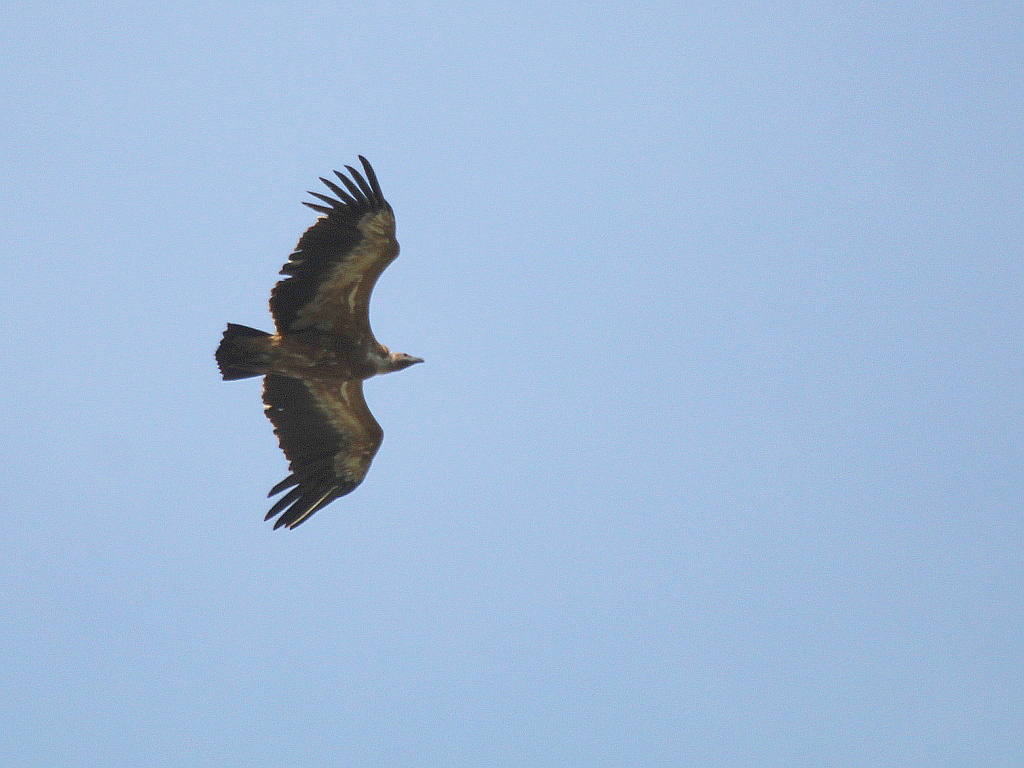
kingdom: Animalia
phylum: Chordata
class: Aves
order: Accipitriformes
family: Accipitridae
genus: Gyps
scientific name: Gyps fulvus
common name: Griffon vulture
